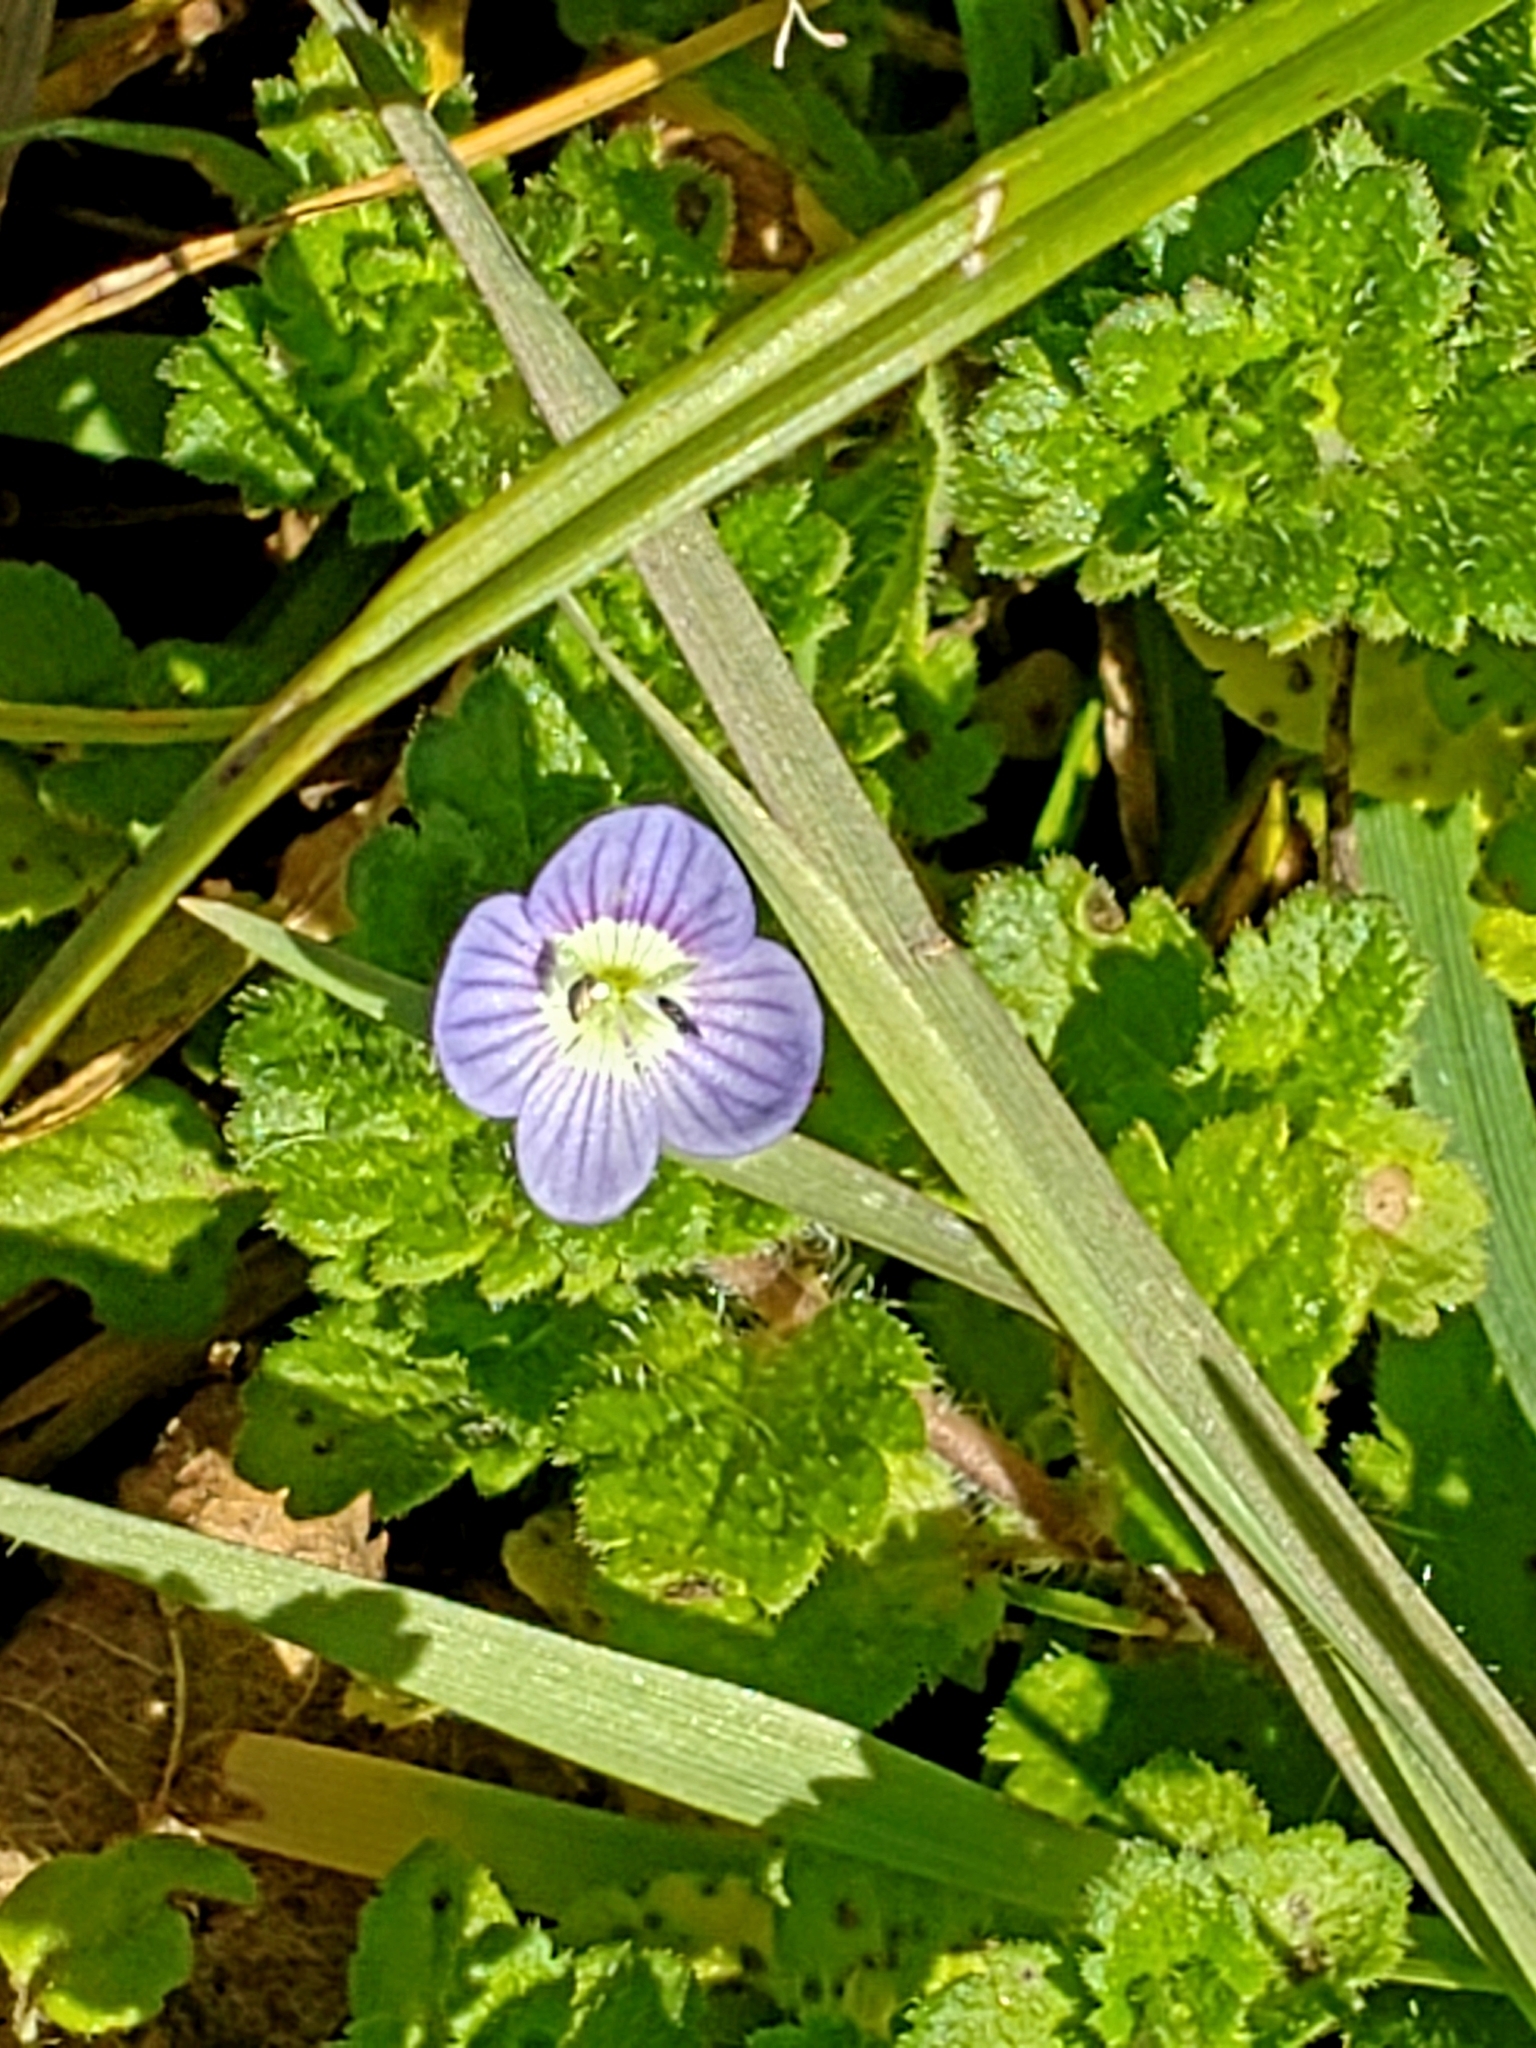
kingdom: Plantae
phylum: Tracheophyta
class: Magnoliopsida
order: Lamiales
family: Plantaginaceae
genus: Veronica
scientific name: Veronica persica
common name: Common field-speedwell
